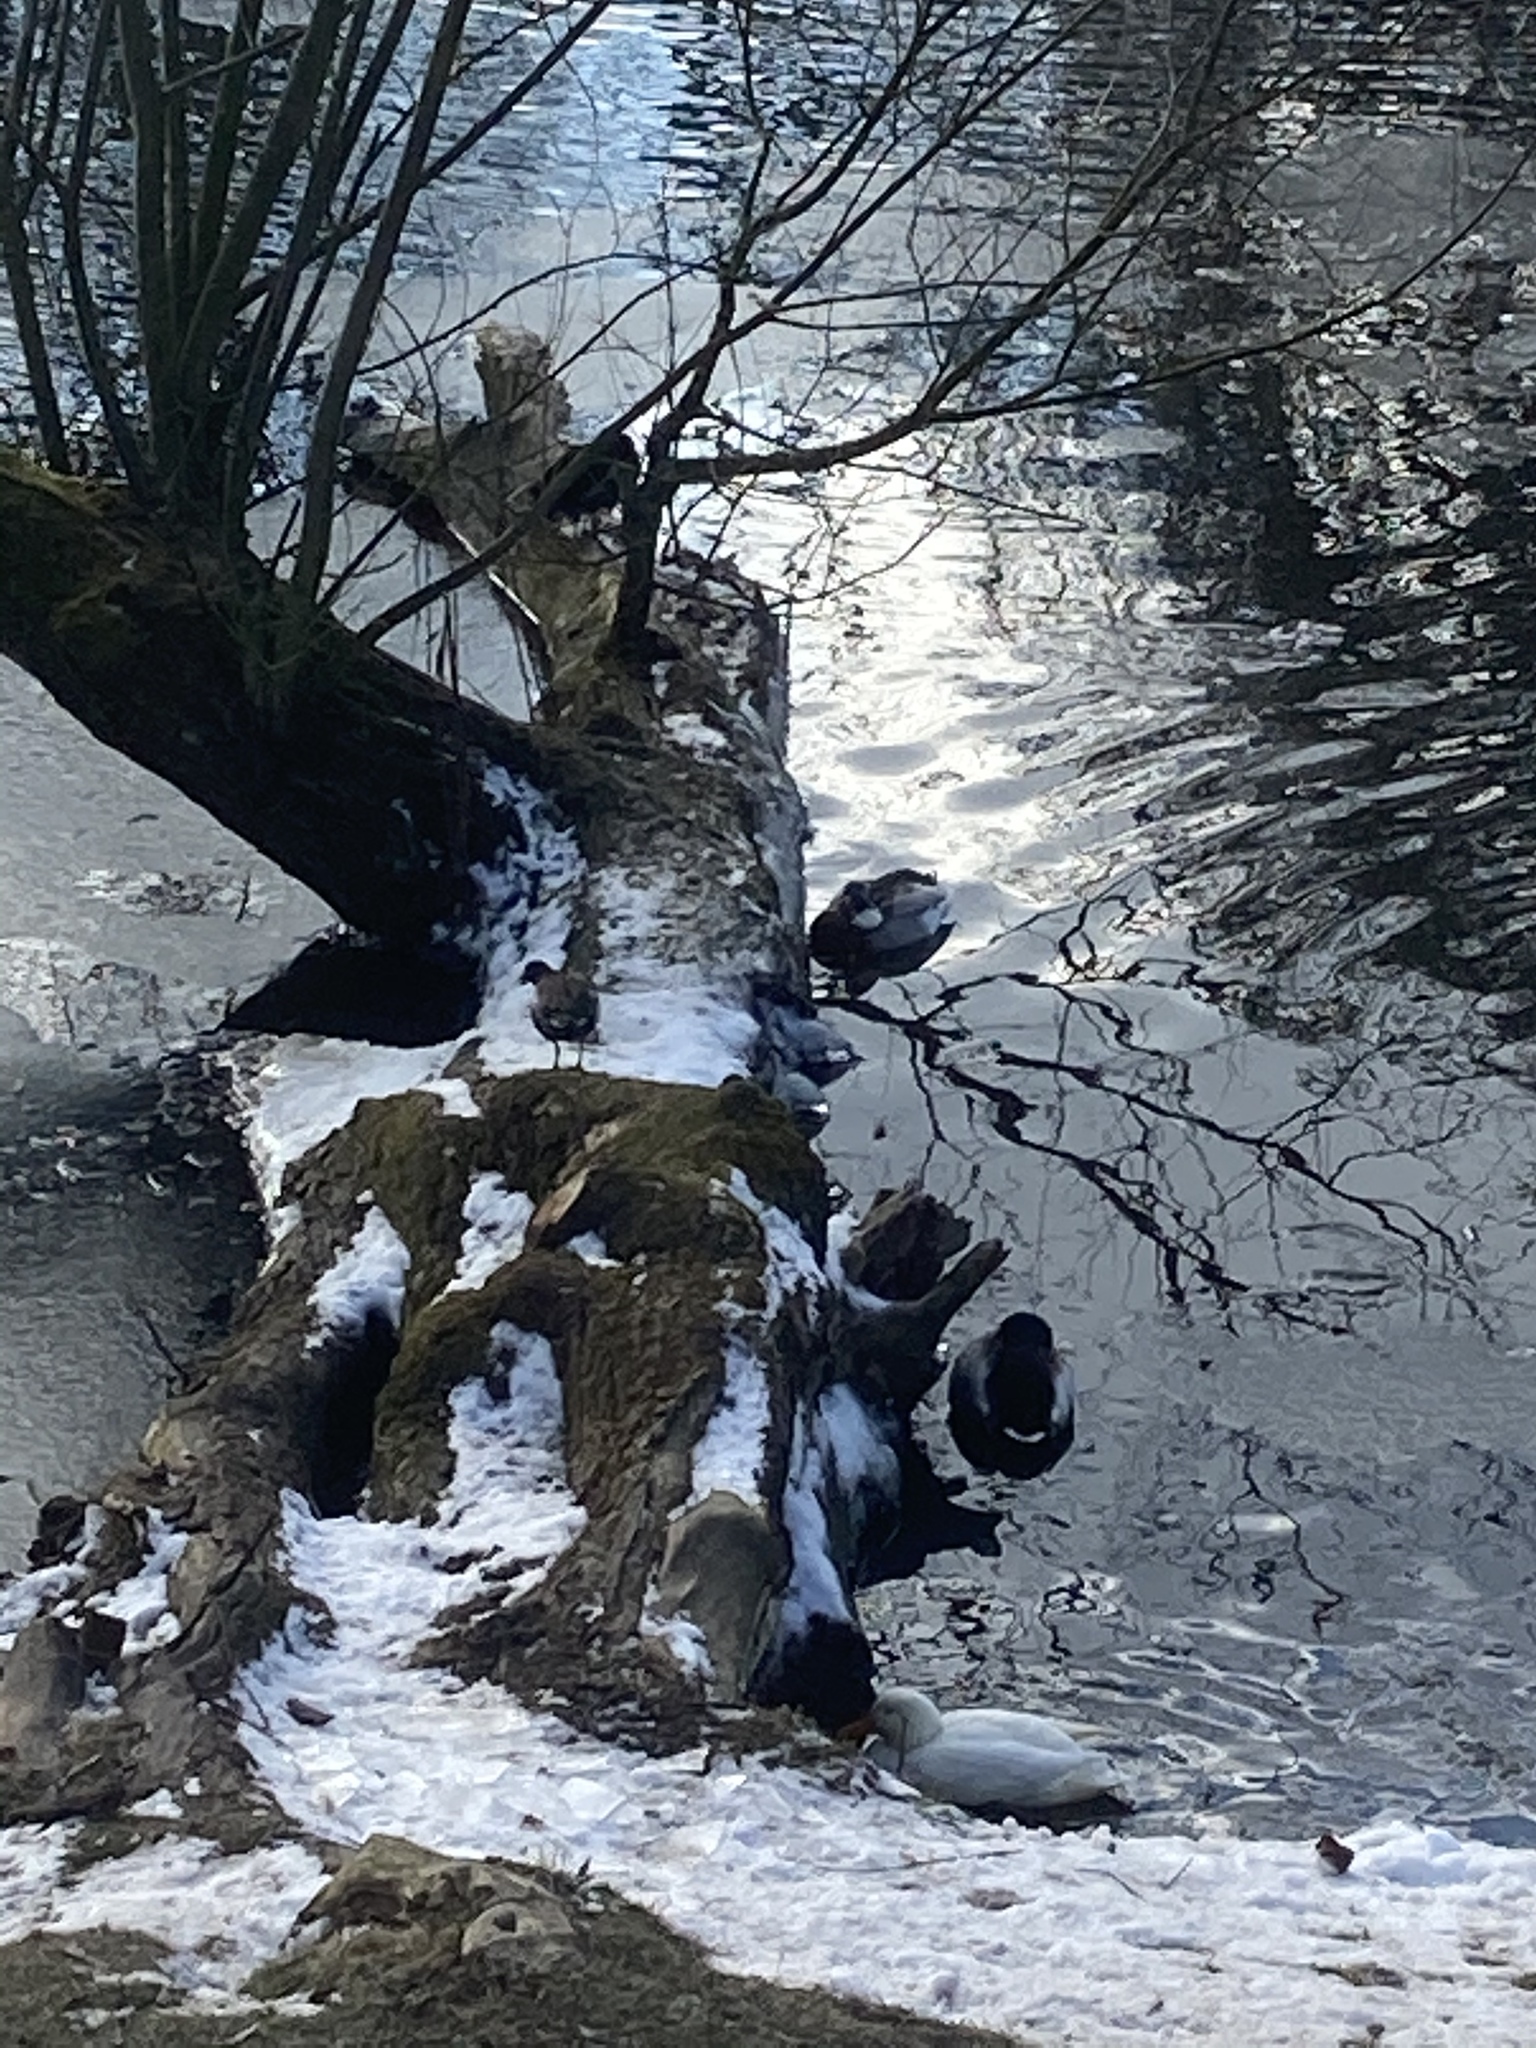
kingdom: Animalia
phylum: Chordata
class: Aves
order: Gruiformes
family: Rallidae
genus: Gallinula
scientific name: Gallinula chloropus
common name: Common moorhen
